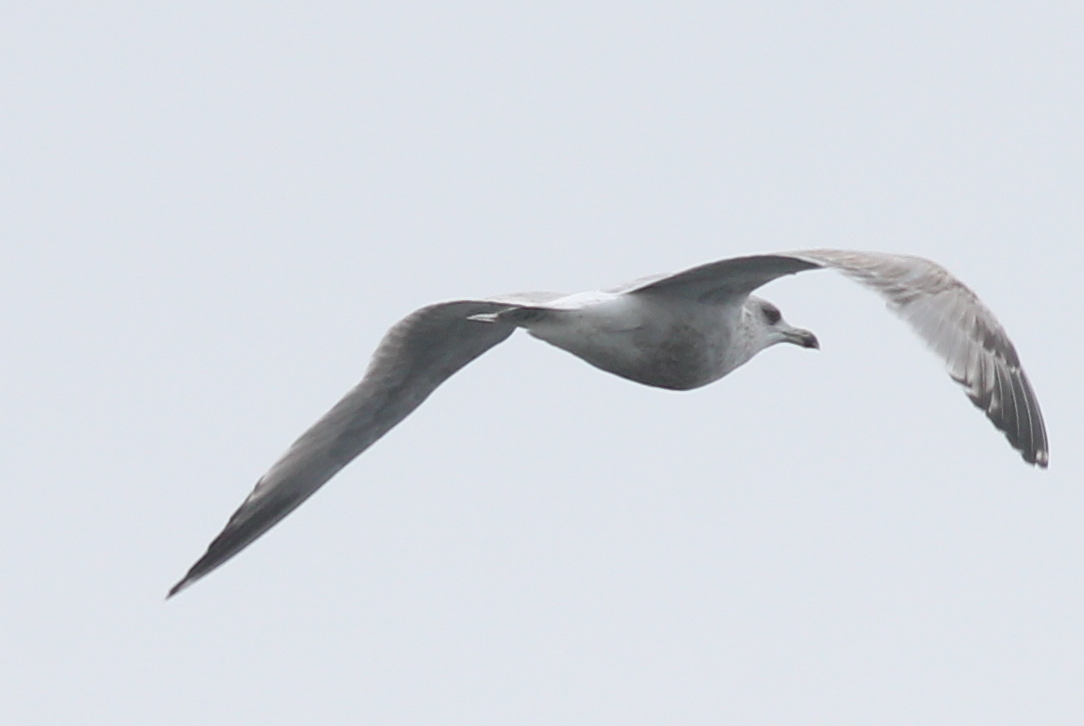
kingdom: Animalia
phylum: Chordata
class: Aves
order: Charadriiformes
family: Laridae
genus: Larus
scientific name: Larus argentatus
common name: Herring gull
